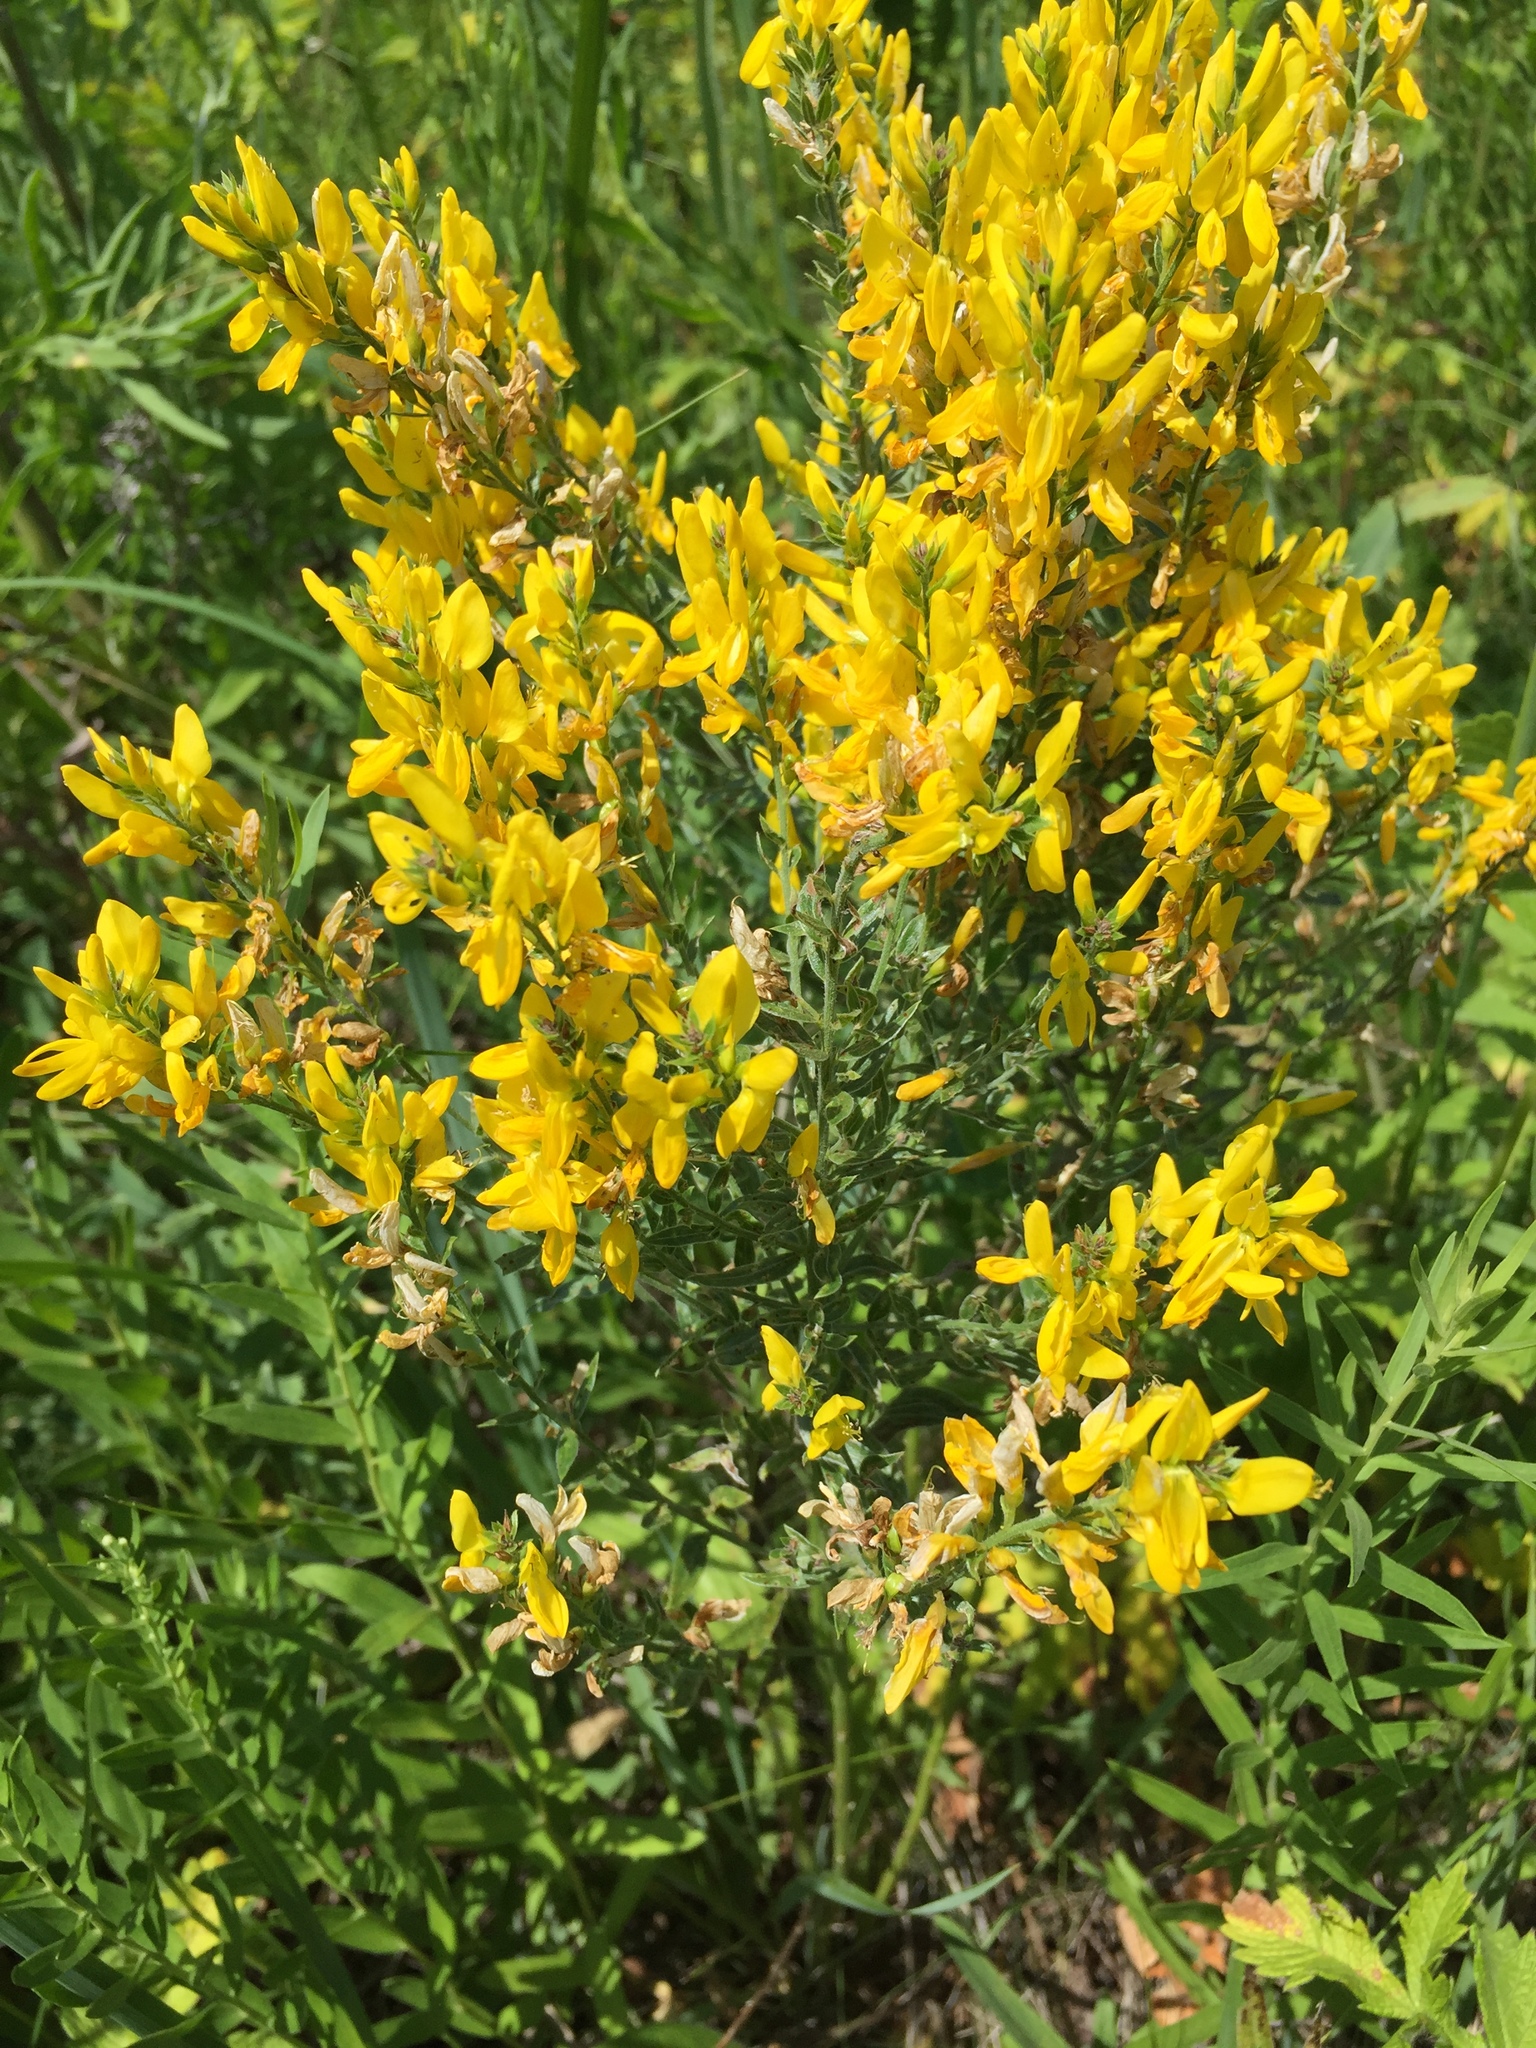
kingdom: Plantae
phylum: Tracheophyta
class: Magnoliopsida
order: Fabales
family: Fabaceae
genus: Genista
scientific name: Genista tinctoria
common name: Dyer's greenweed
